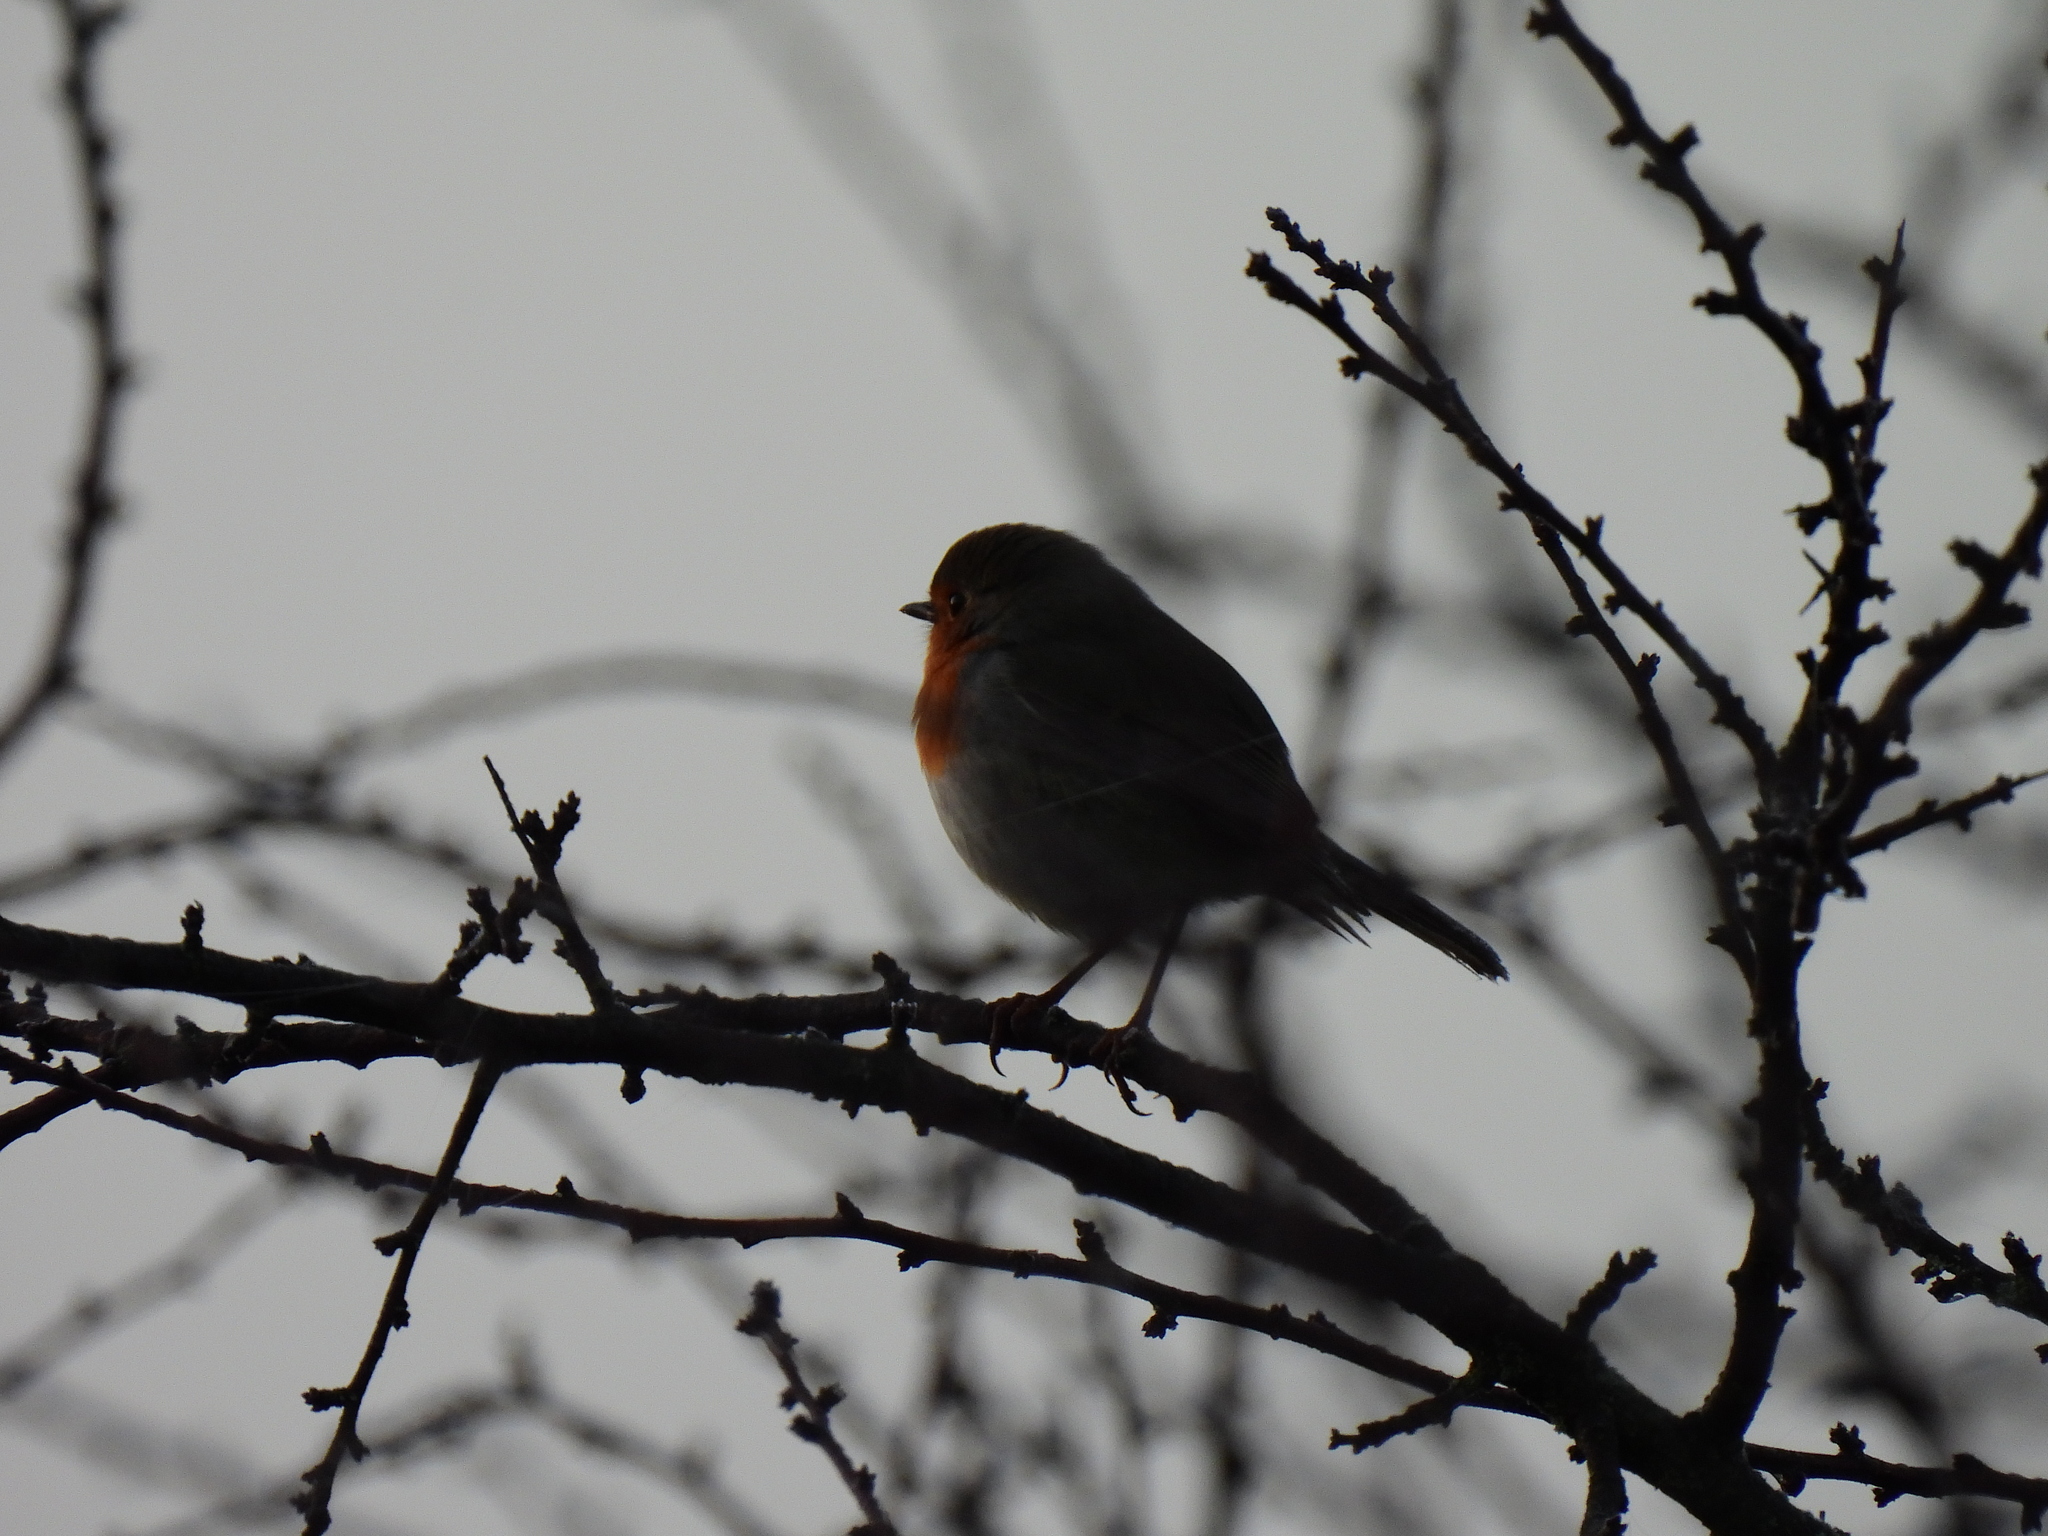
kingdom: Animalia
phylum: Chordata
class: Aves
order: Passeriformes
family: Muscicapidae
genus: Erithacus
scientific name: Erithacus rubecula
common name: European robin
